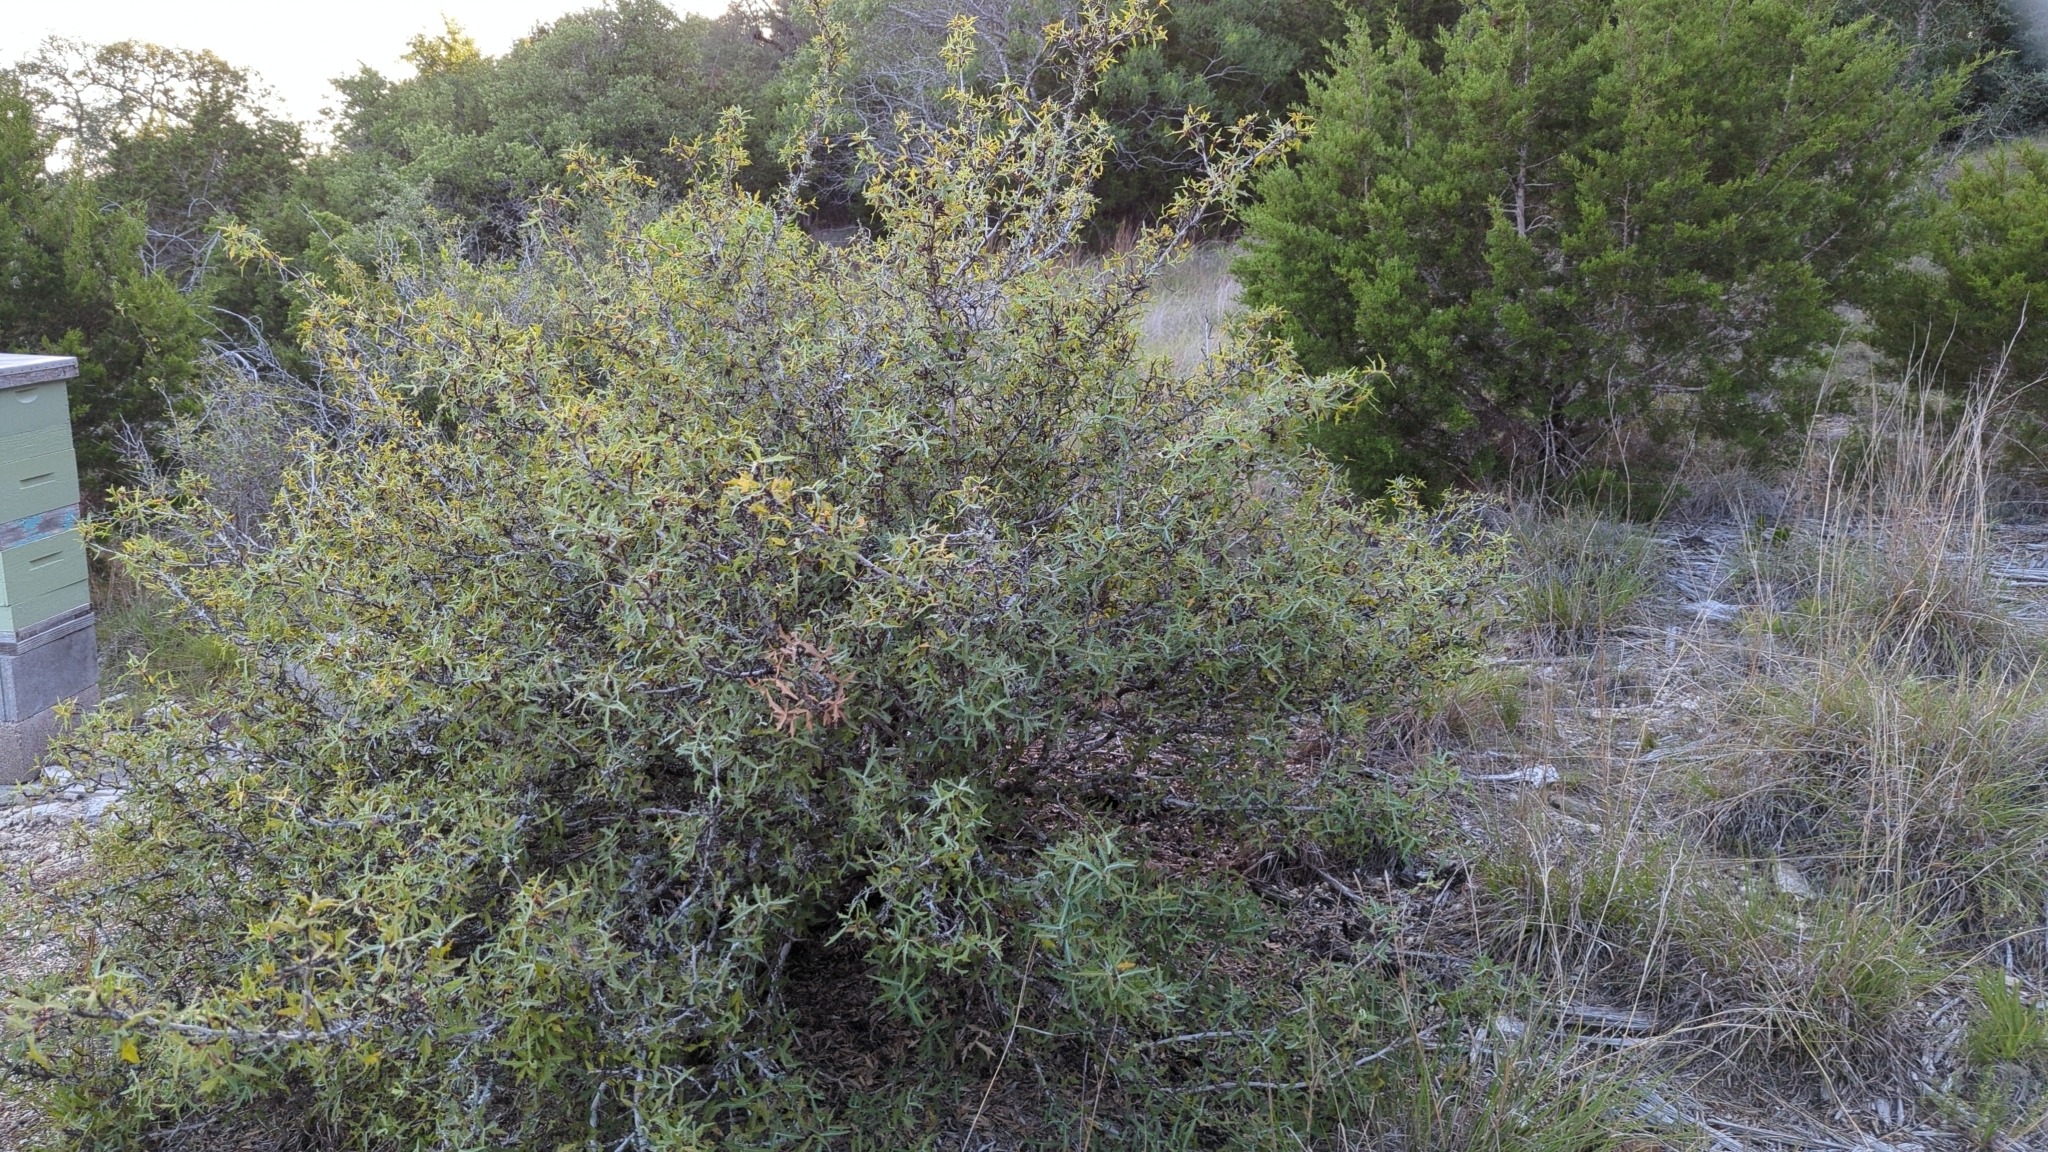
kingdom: Plantae
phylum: Tracheophyta
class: Magnoliopsida
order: Ranunculales
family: Berberidaceae
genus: Alloberberis
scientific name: Alloberberis trifoliolata
